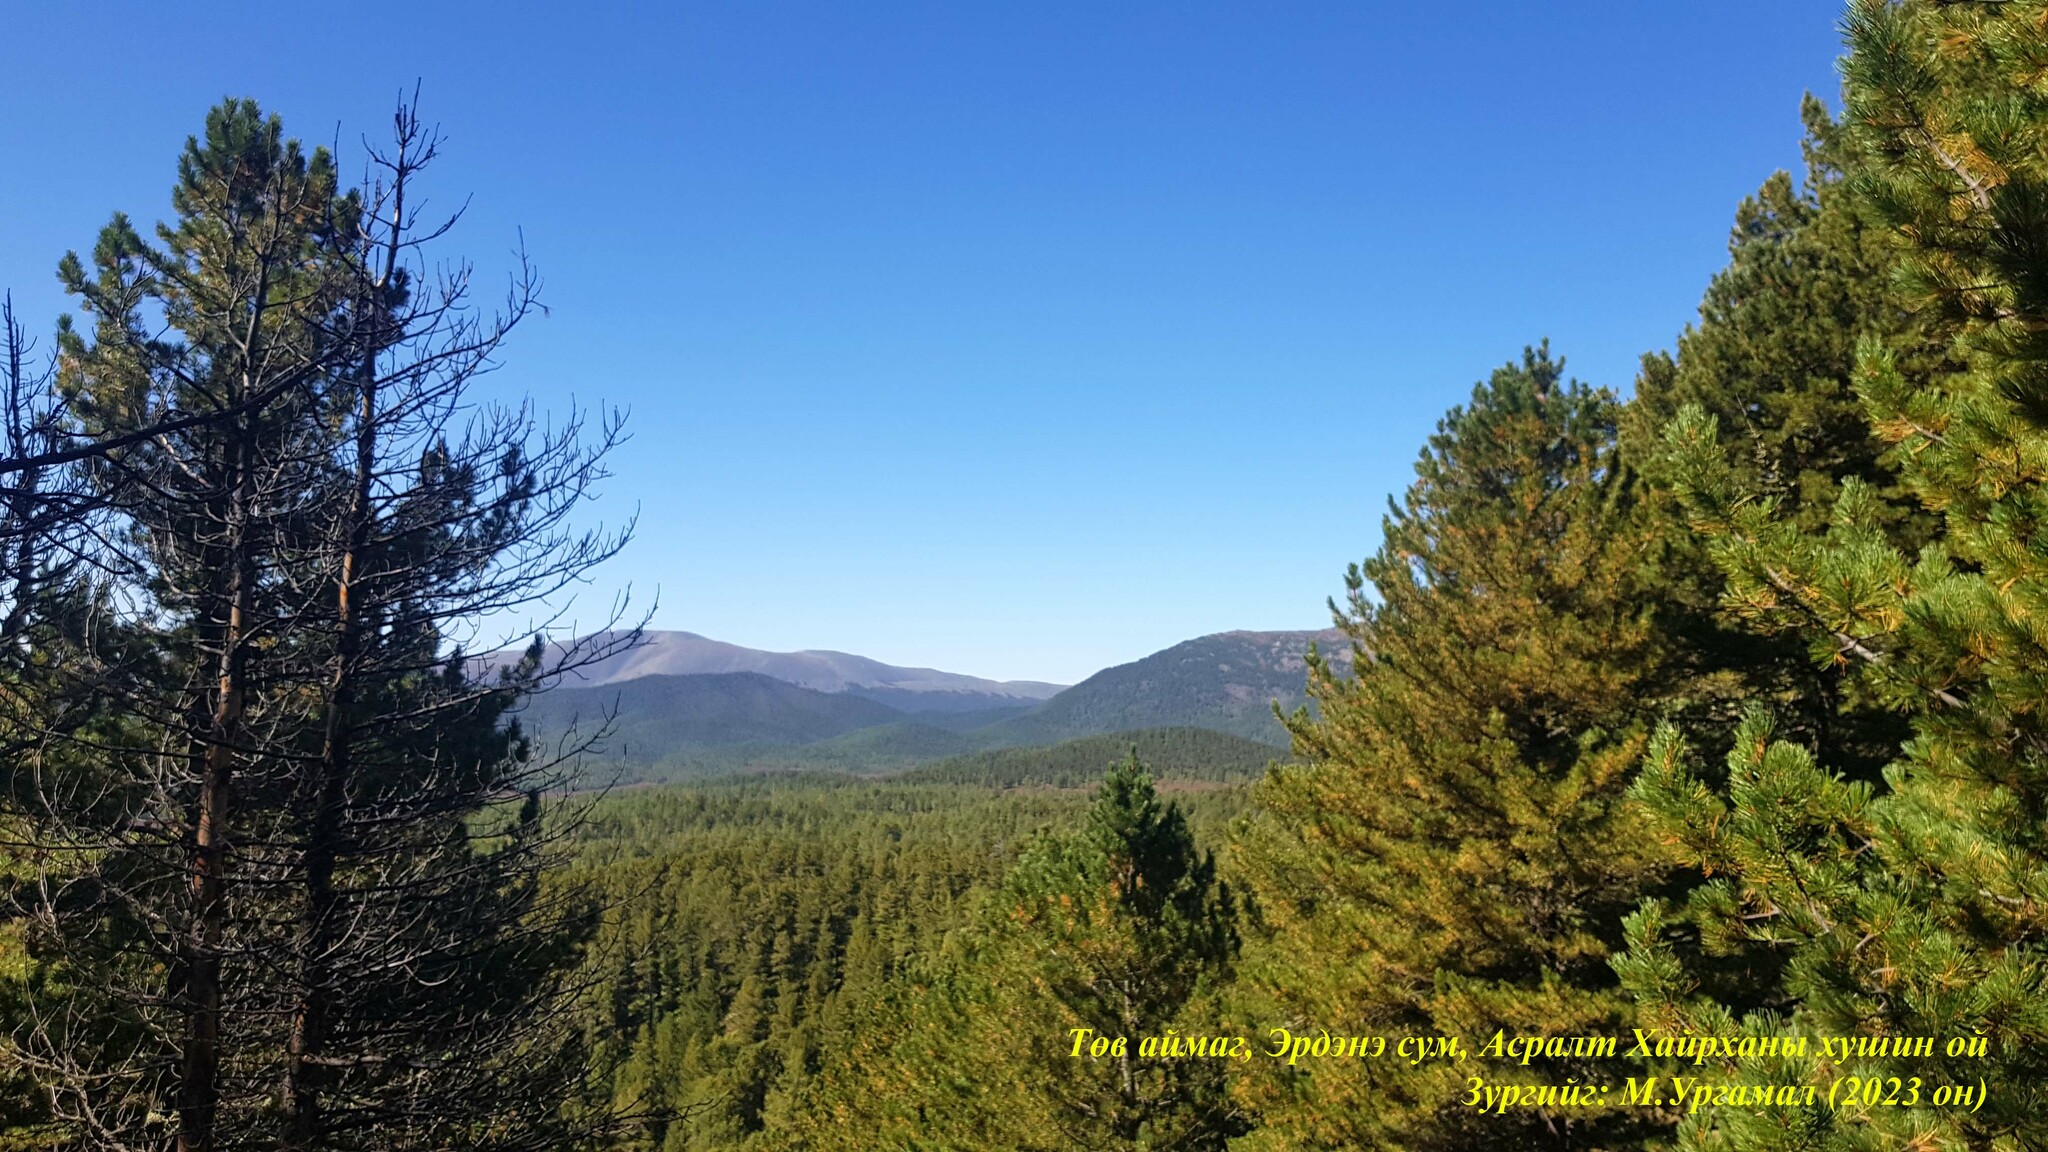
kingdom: Plantae
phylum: Tracheophyta
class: Pinopsida
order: Pinales
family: Pinaceae
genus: Pinus
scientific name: Pinus sibirica
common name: Siberian pine
